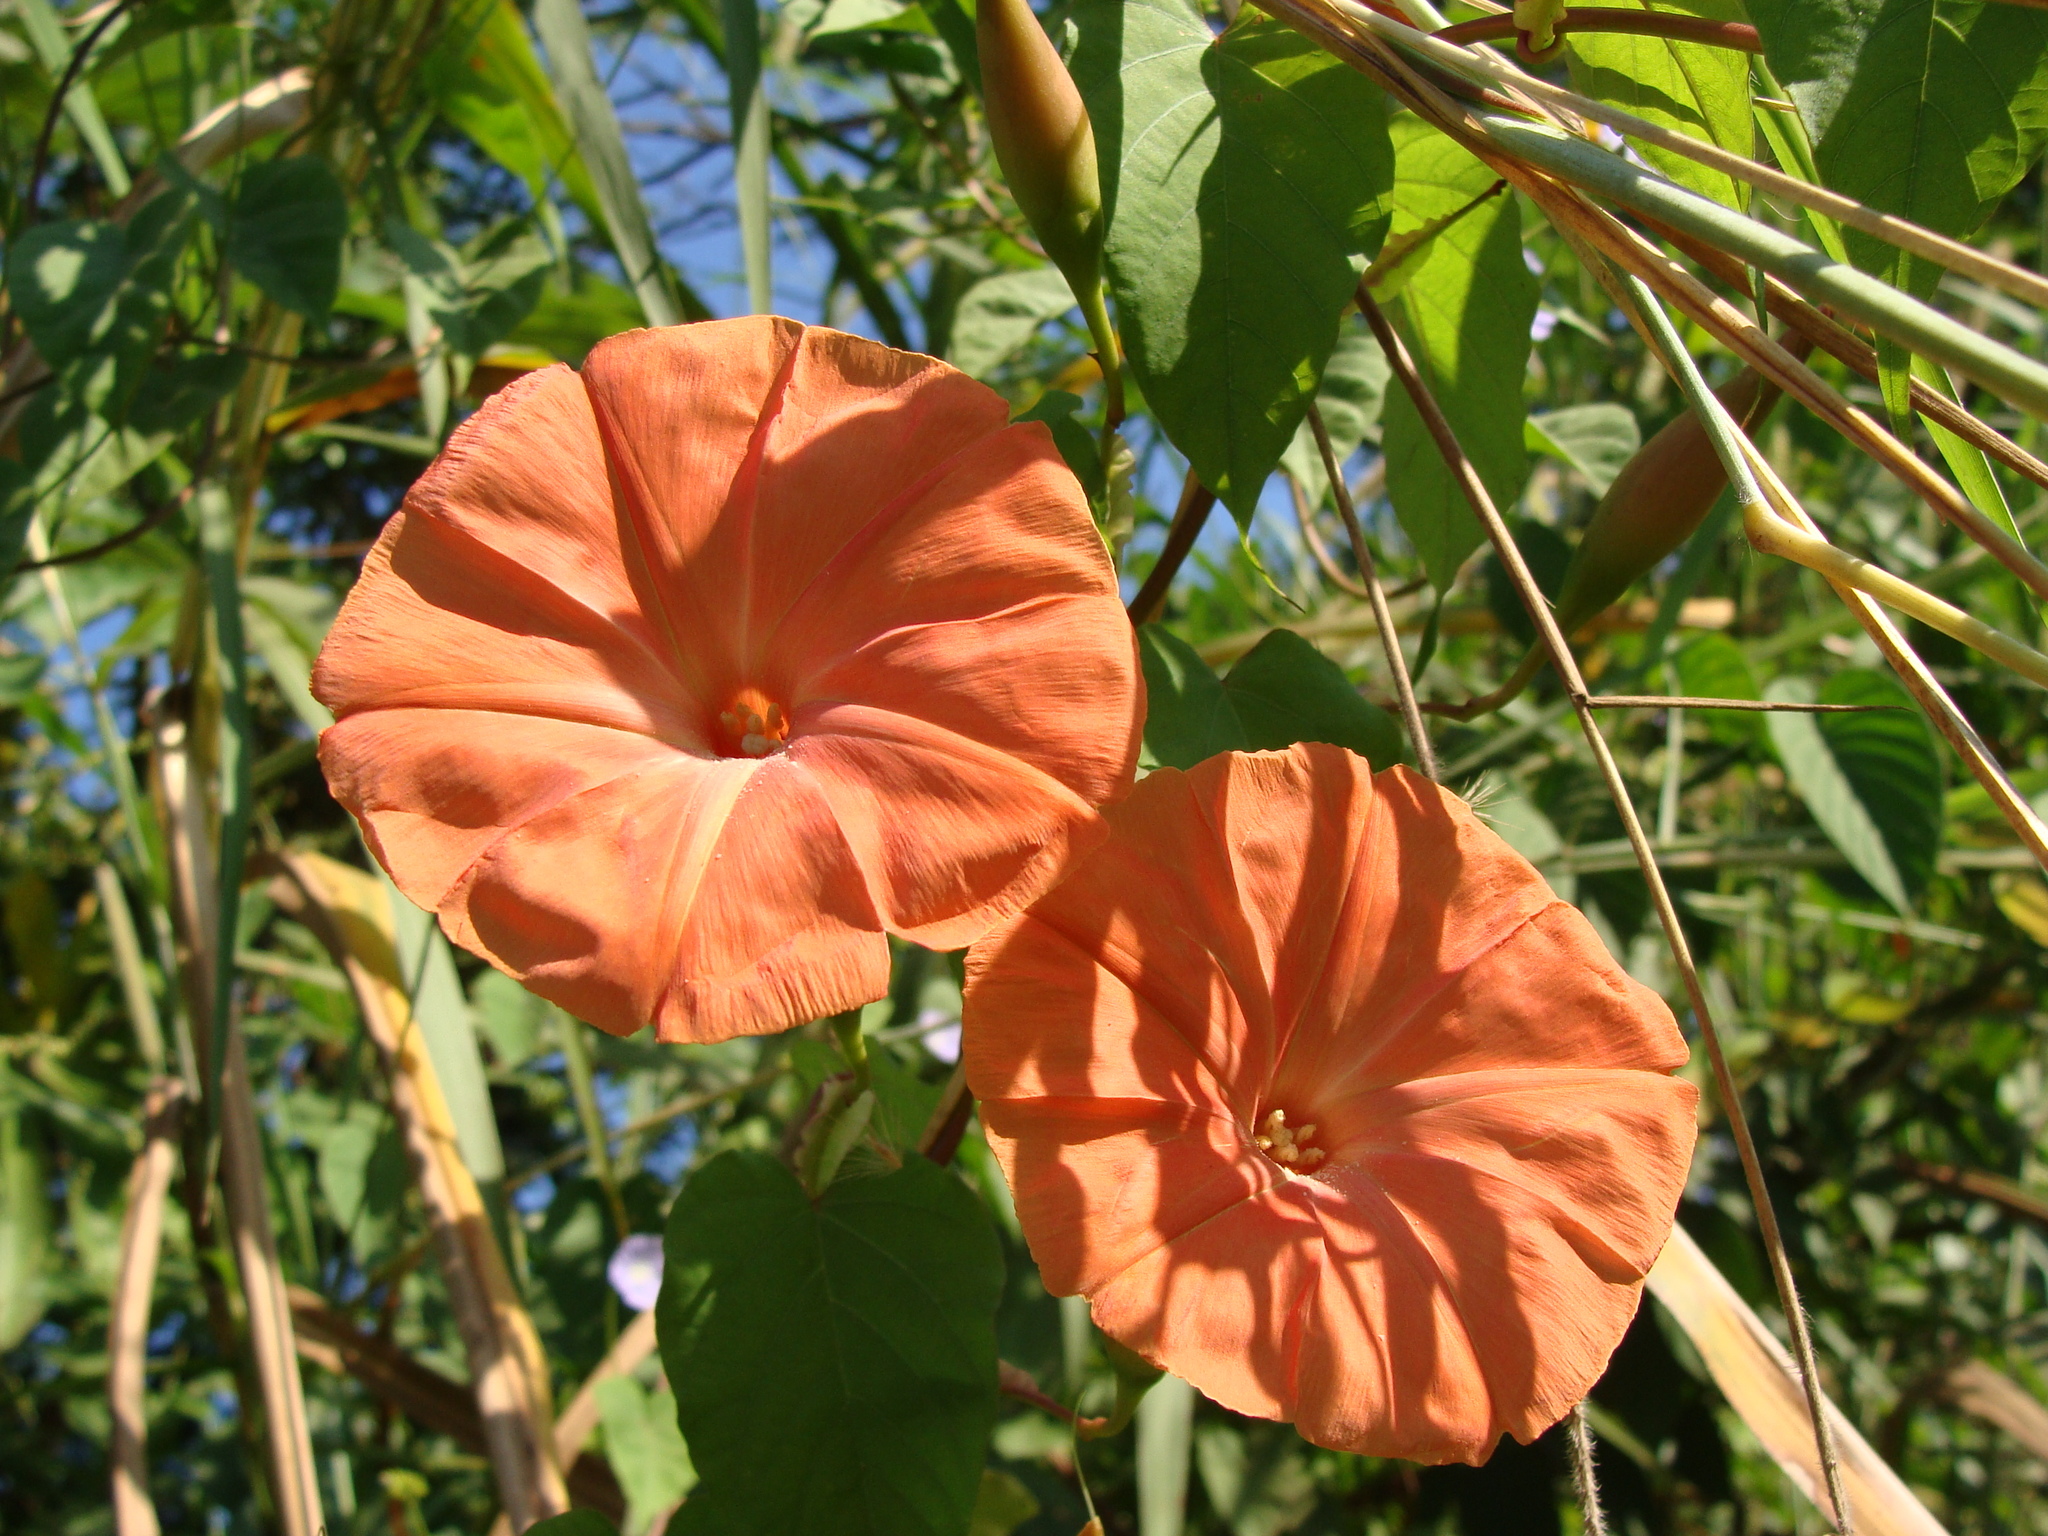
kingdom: Plantae
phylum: Tracheophyta
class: Magnoliopsida
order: Solanales
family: Convolvulaceae
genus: Operculina
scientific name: Operculina pteripes
